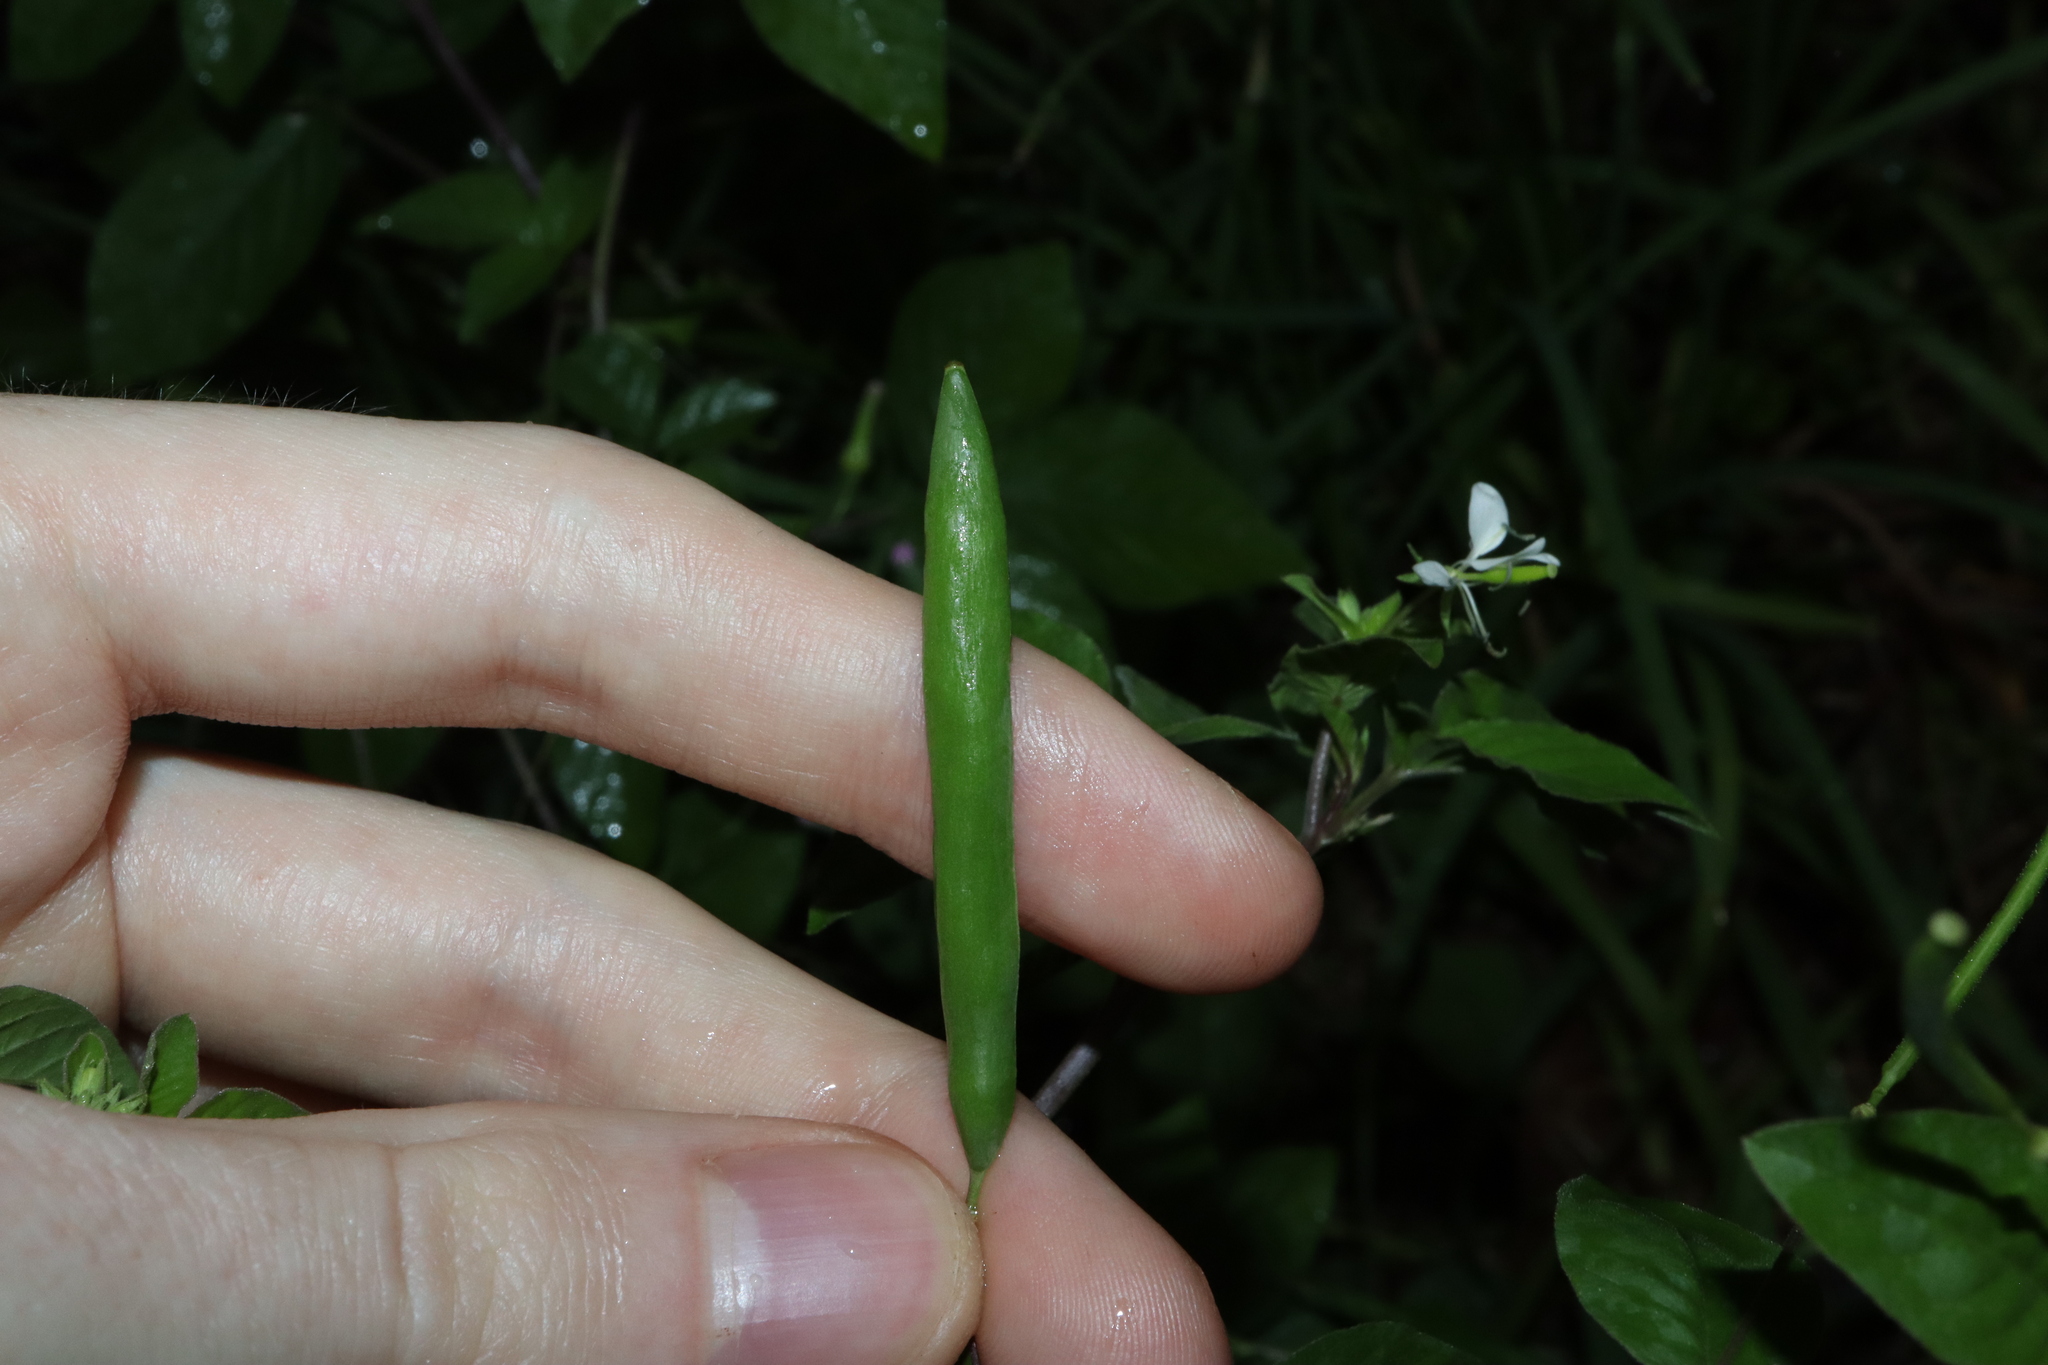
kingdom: Plantae
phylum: Tracheophyta
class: Magnoliopsida
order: Brassicales
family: Cleomaceae
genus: Tarenaya
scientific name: Tarenaya aculeata
